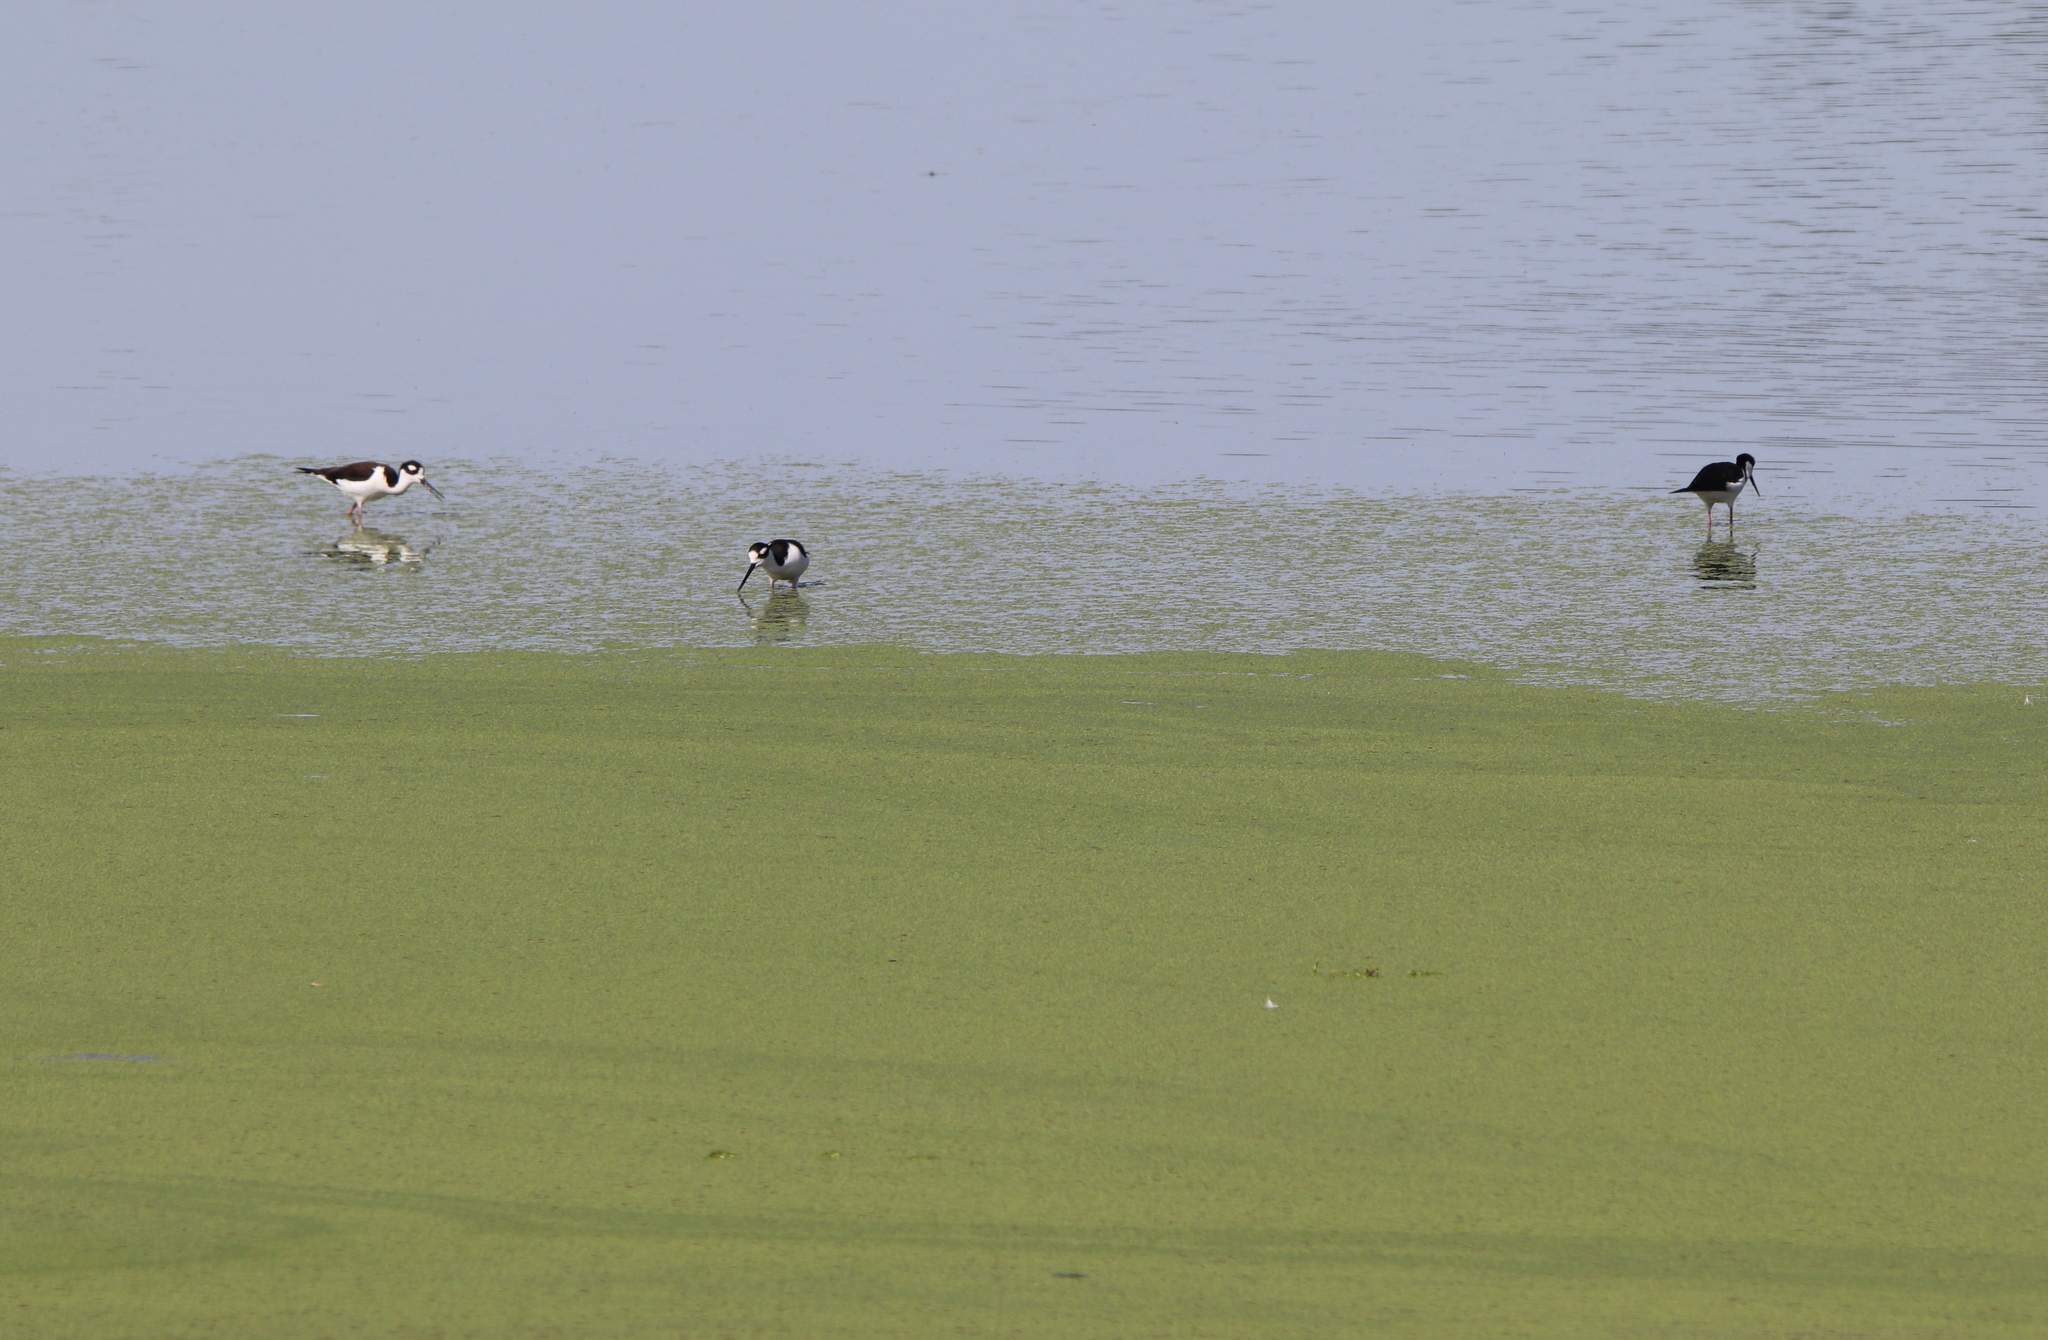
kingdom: Animalia
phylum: Chordata
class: Aves
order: Charadriiformes
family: Recurvirostridae
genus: Himantopus
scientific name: Himantopus mexicanus
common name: Black-necked stilt
